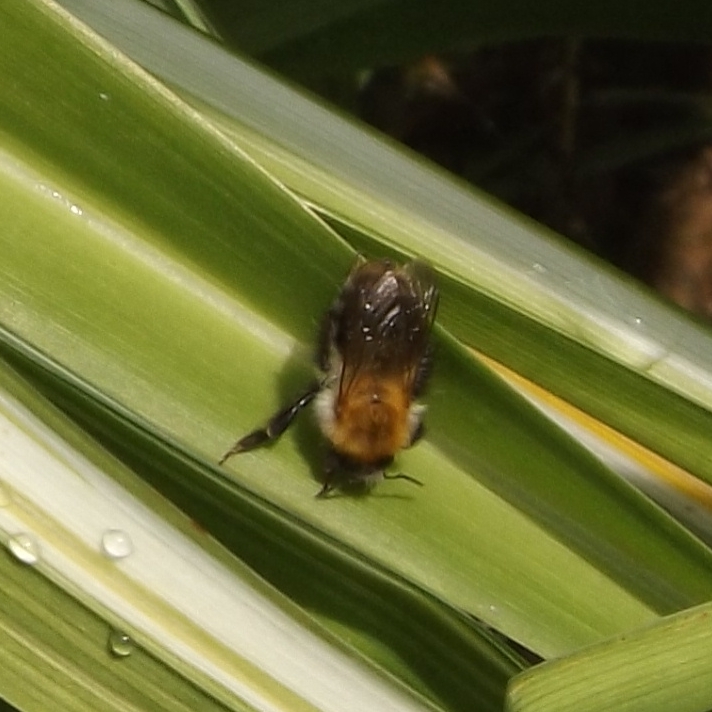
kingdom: Animalia
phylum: Arthropoda
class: Insecta
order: Hymenoptera
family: Apidae
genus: Bombus
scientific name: Bombus pascuorum
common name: Common carder bee
